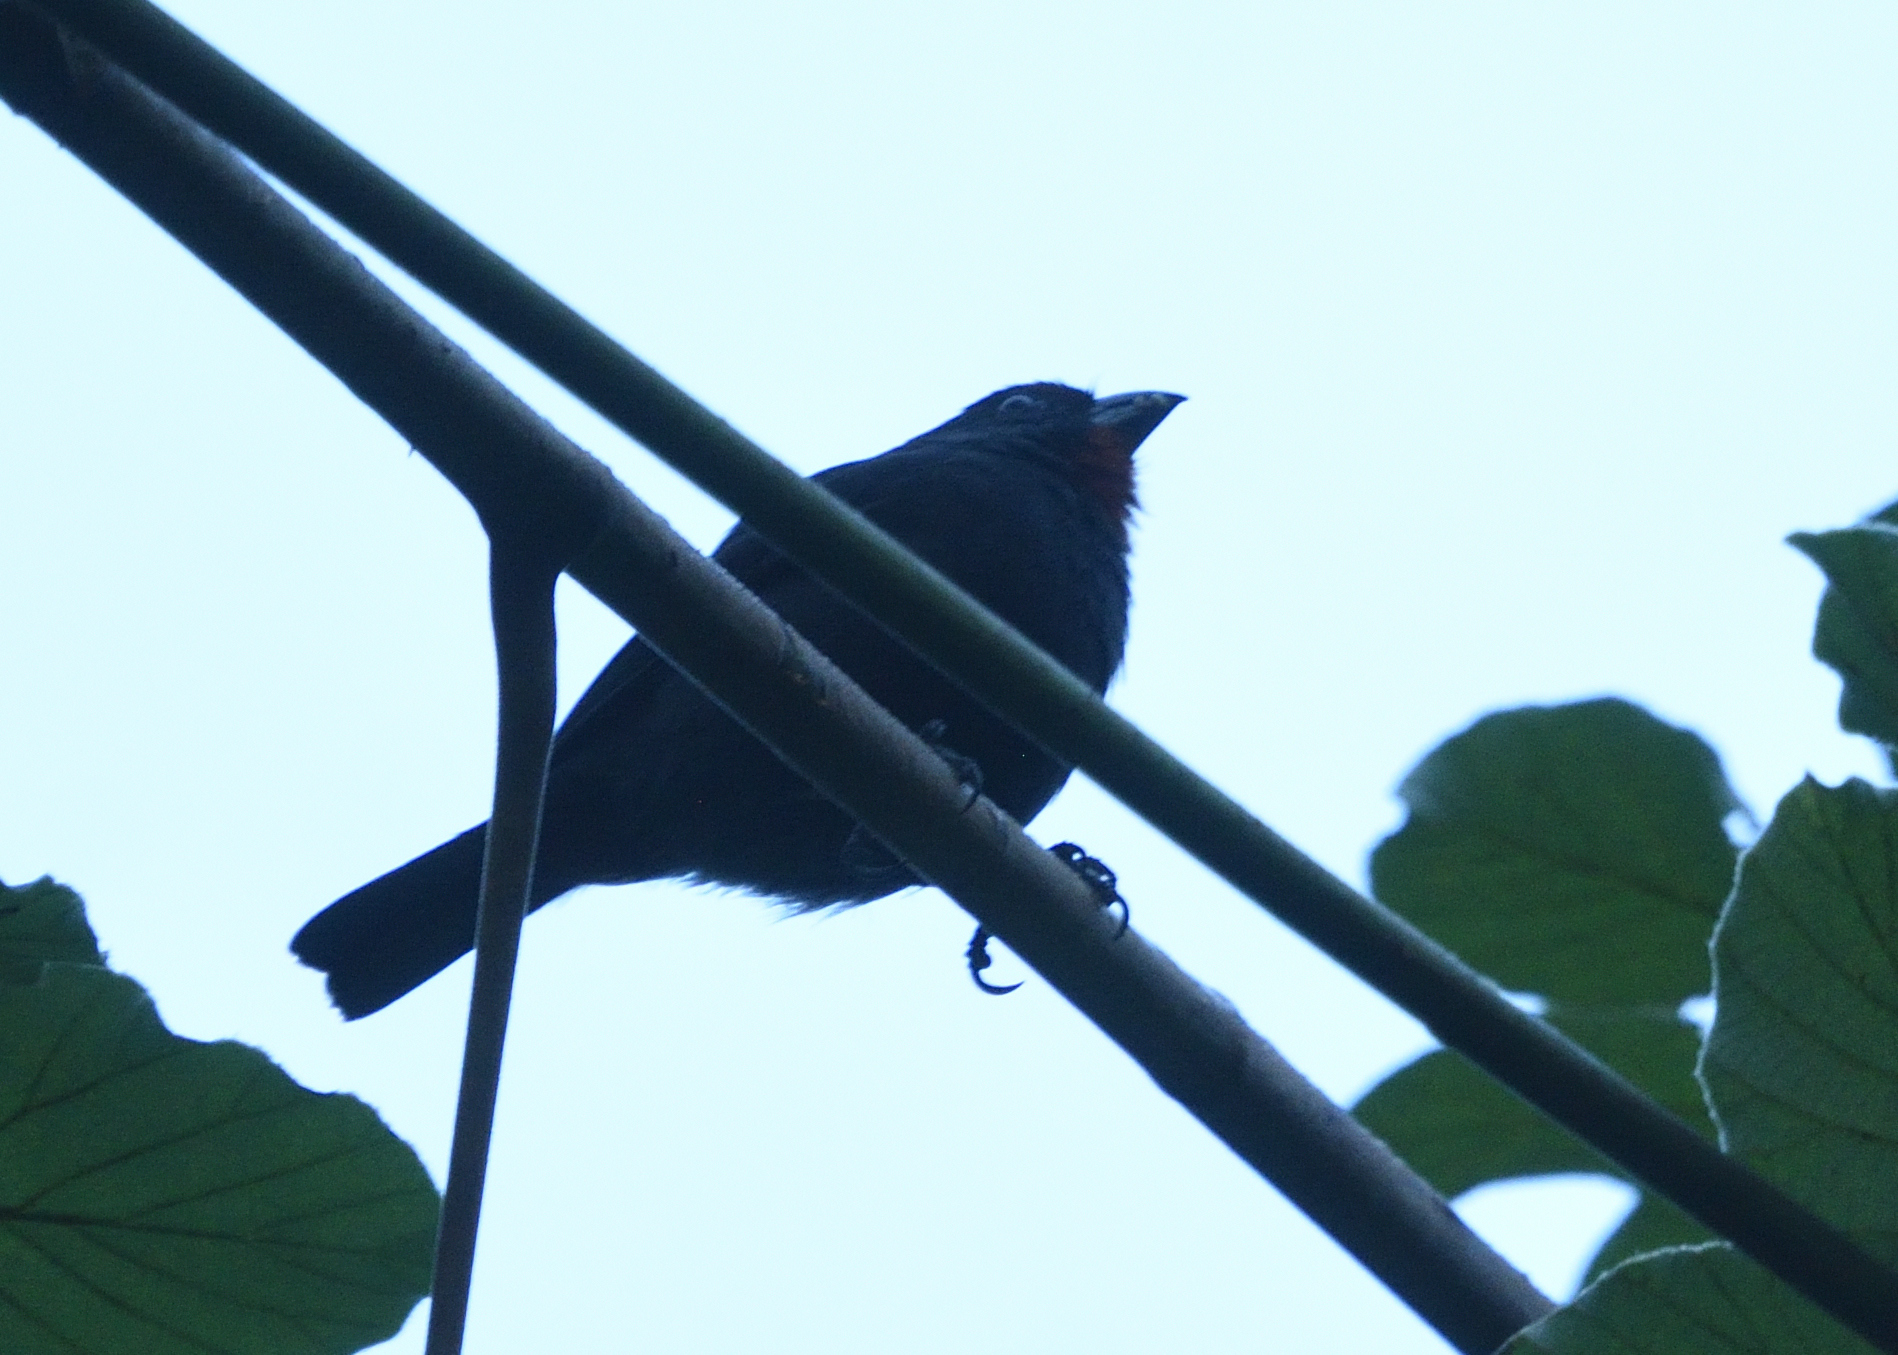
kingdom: Animalia
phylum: Chordata
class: Aves
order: Passeriformes
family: Thraupidae
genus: Loxigilla
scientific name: Loxigilla noctis
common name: Lesser antillean bullfinch
